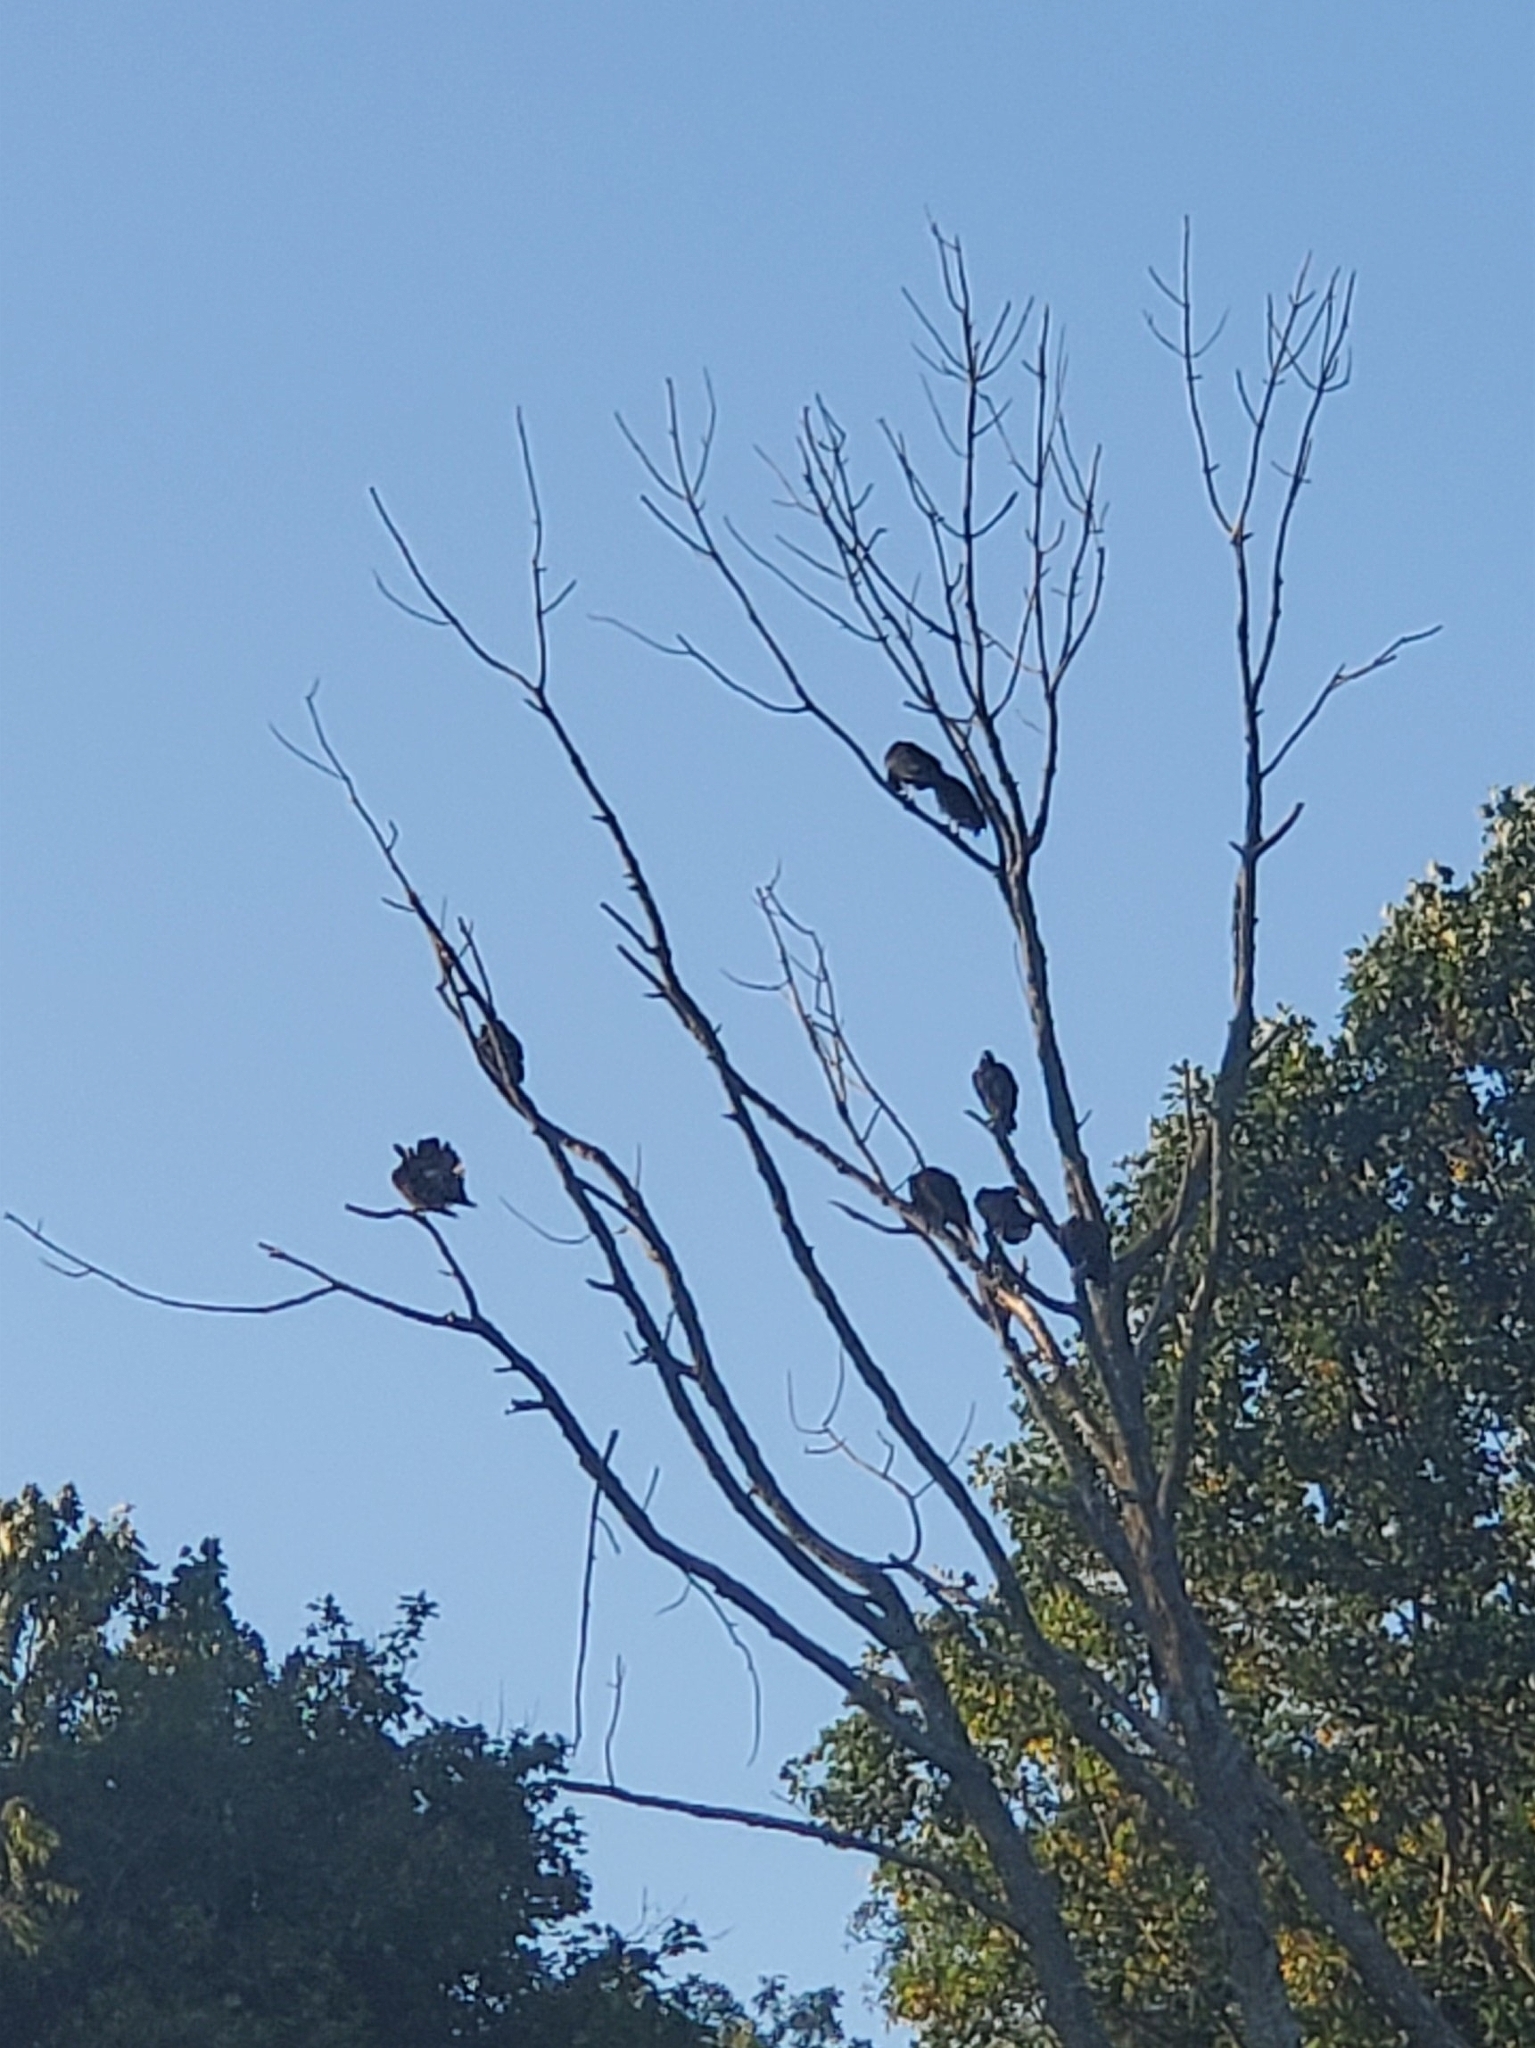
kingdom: Animalia
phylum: Chordata
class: Aves
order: Accipitriformes
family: Cathartidae
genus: Coragyps
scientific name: Coragyps atratus
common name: Black vulture
